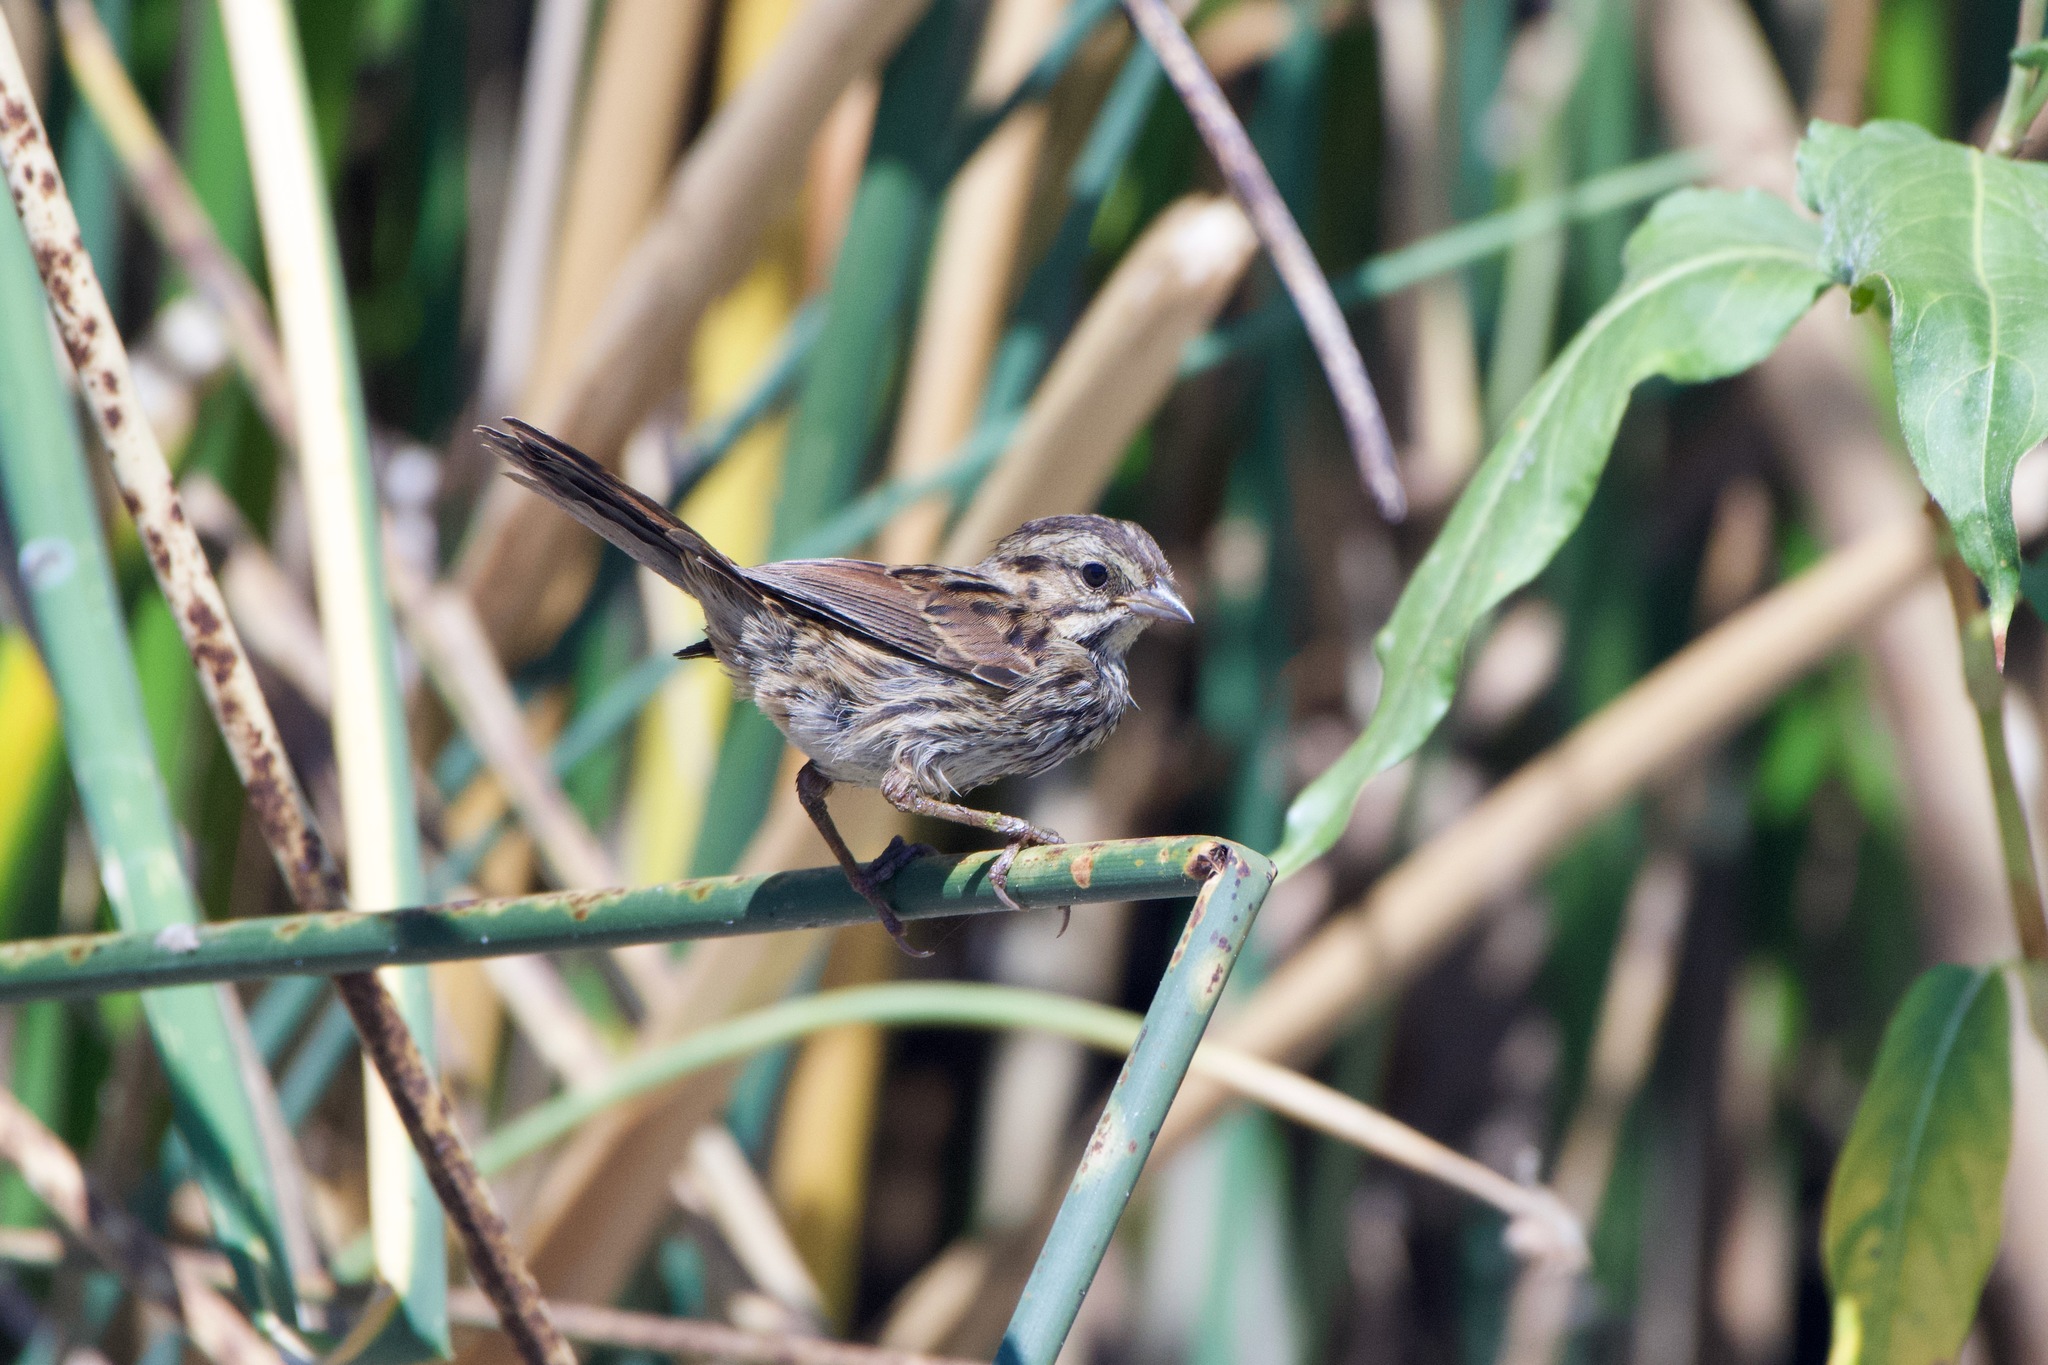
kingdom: Animalia
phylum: Chordata
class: Aves
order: Passeriformes
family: Passerellidae
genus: Melospiza
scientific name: Melospiza melodia
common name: Song sparrow
